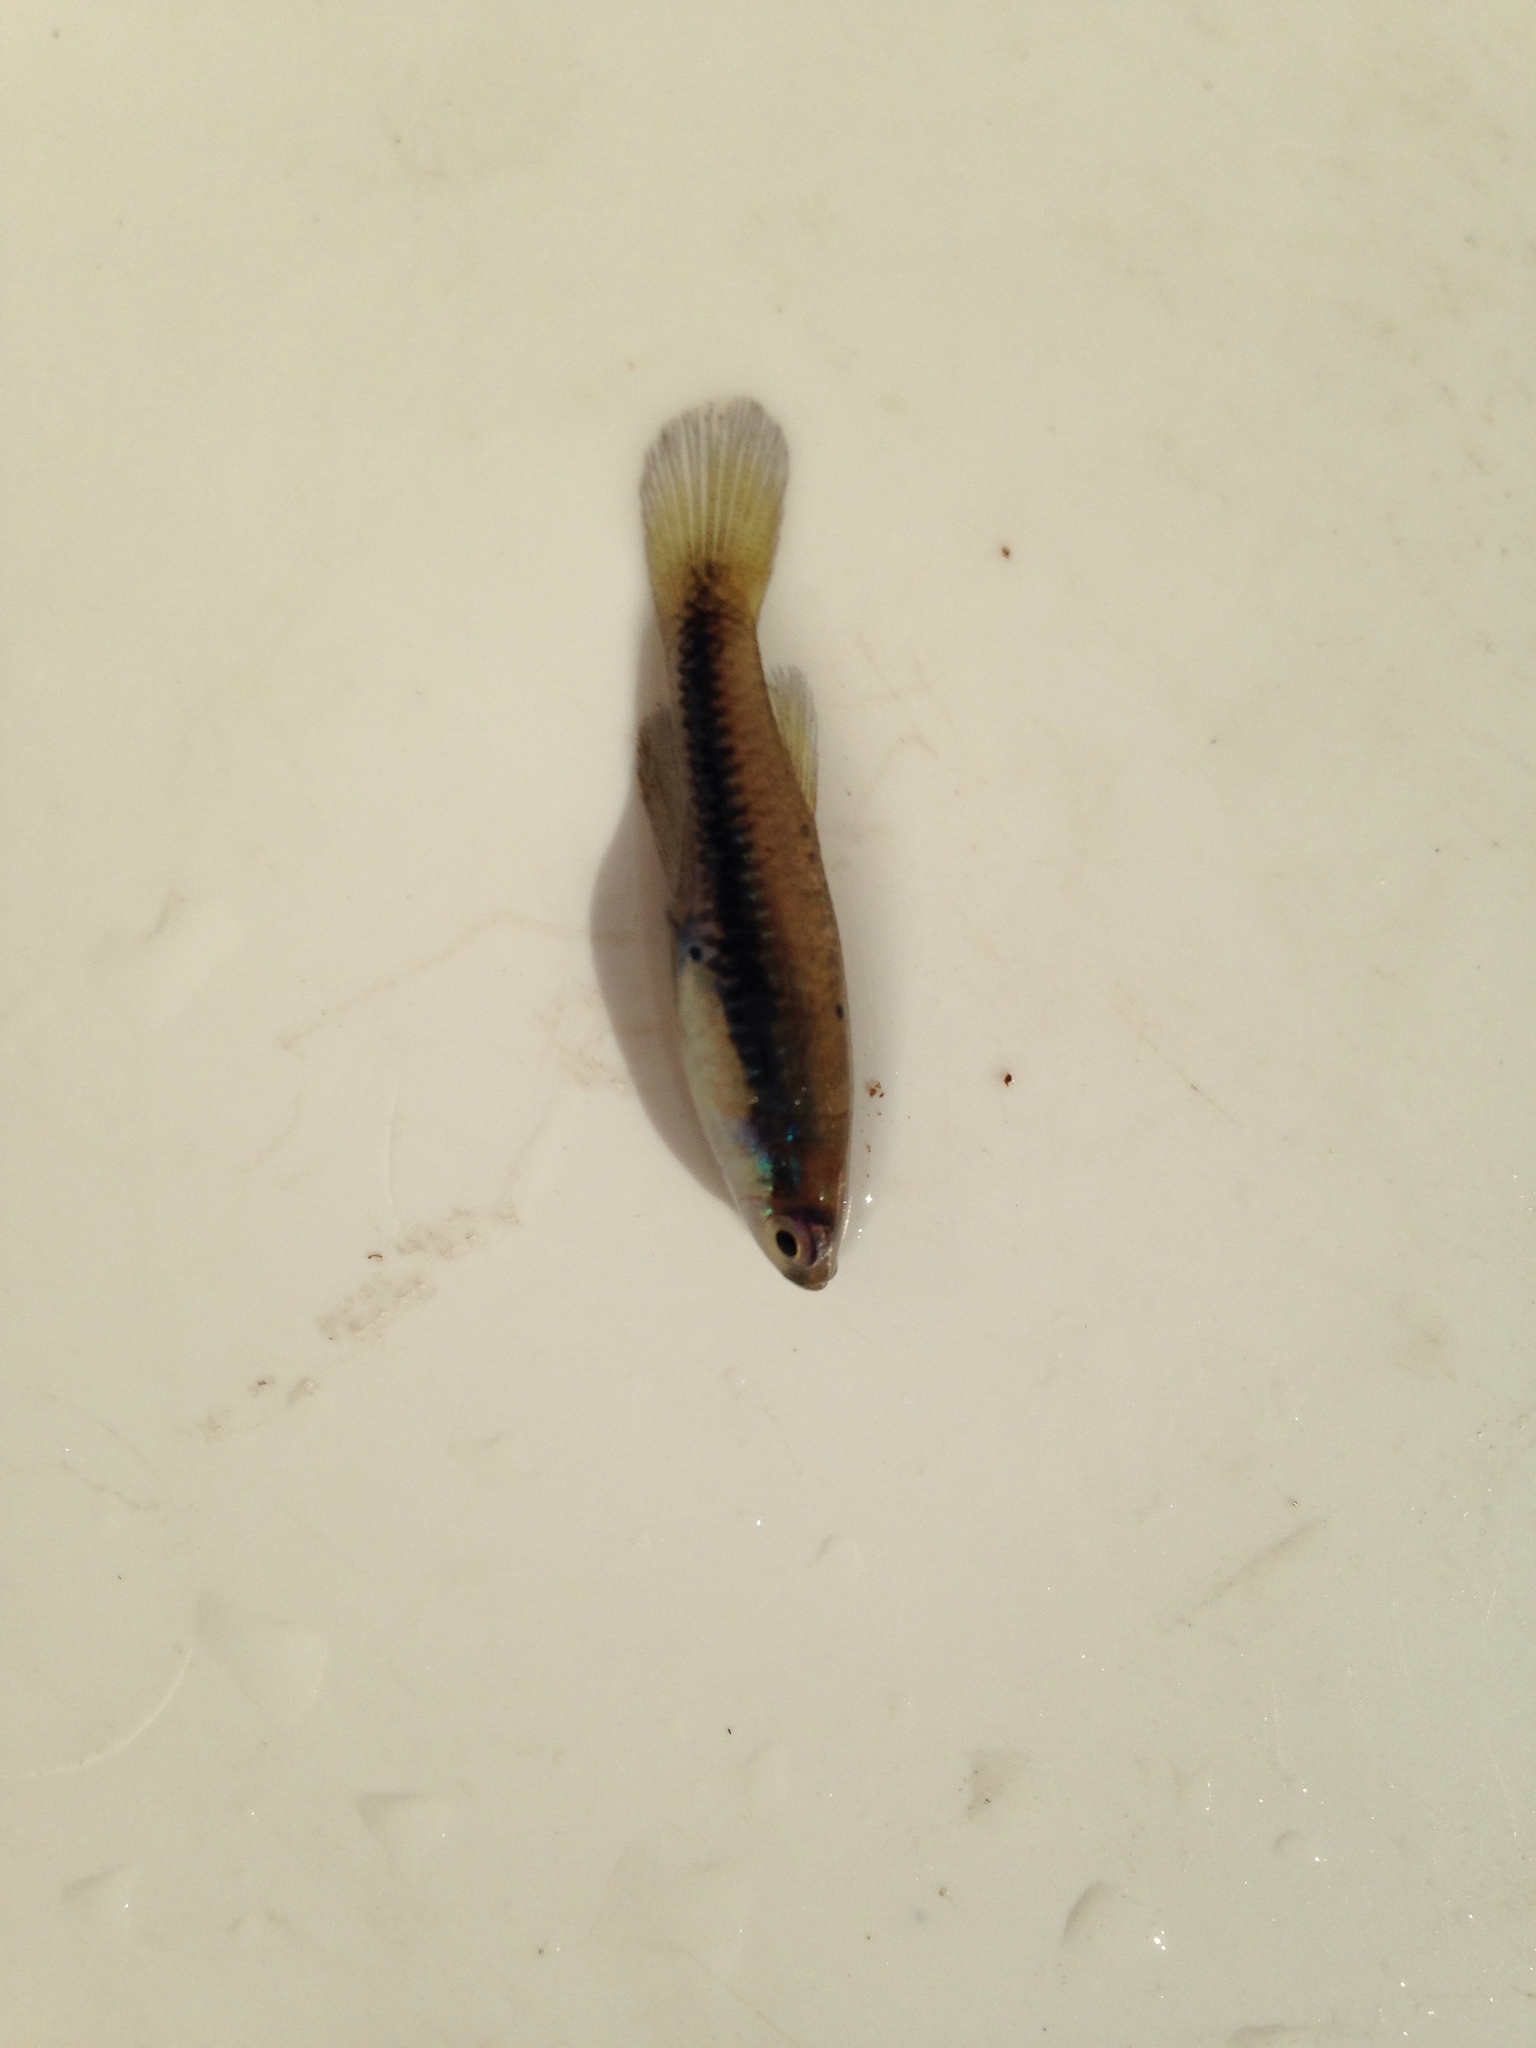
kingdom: Animalia
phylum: Chordata
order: Cyprinodontiformes
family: Poeciliidae
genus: Lacustricola
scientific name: Lacustricola katangae
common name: Striped topminnow
